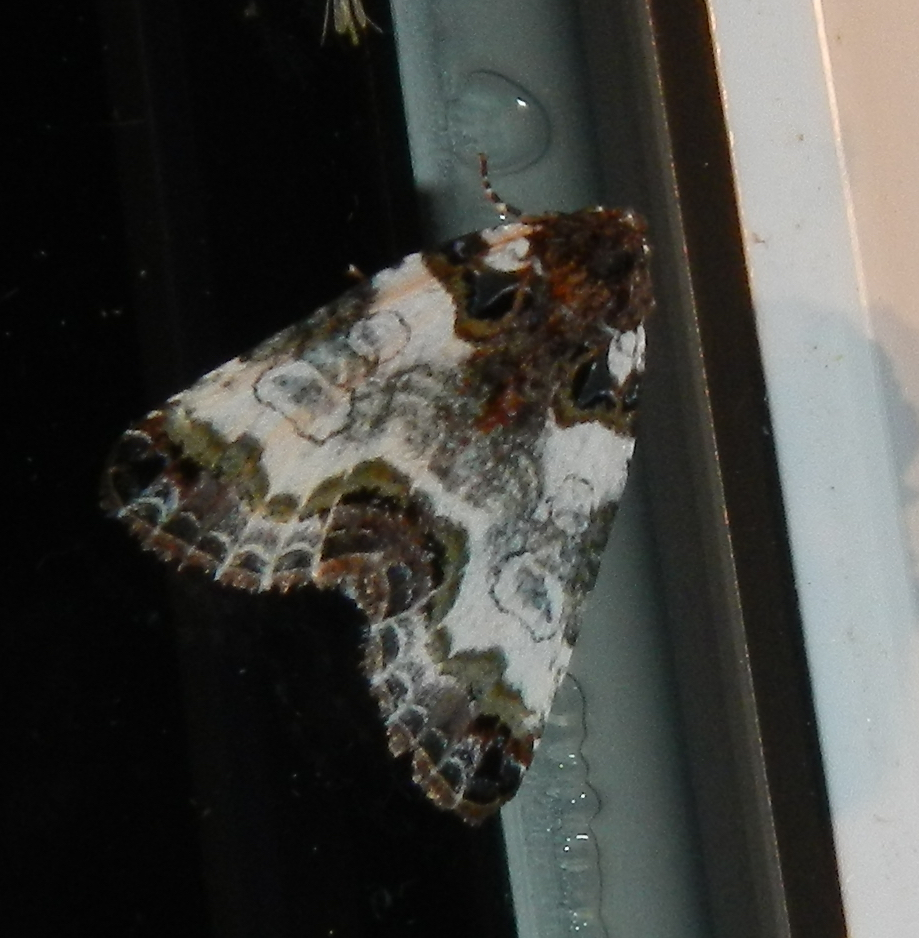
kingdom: Animalia
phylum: Arthropoda
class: Insecta
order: Lepidoptera
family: Noctuidae
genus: Cerma
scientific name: Cerma cerintha
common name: Tufted bird-dropping moth
